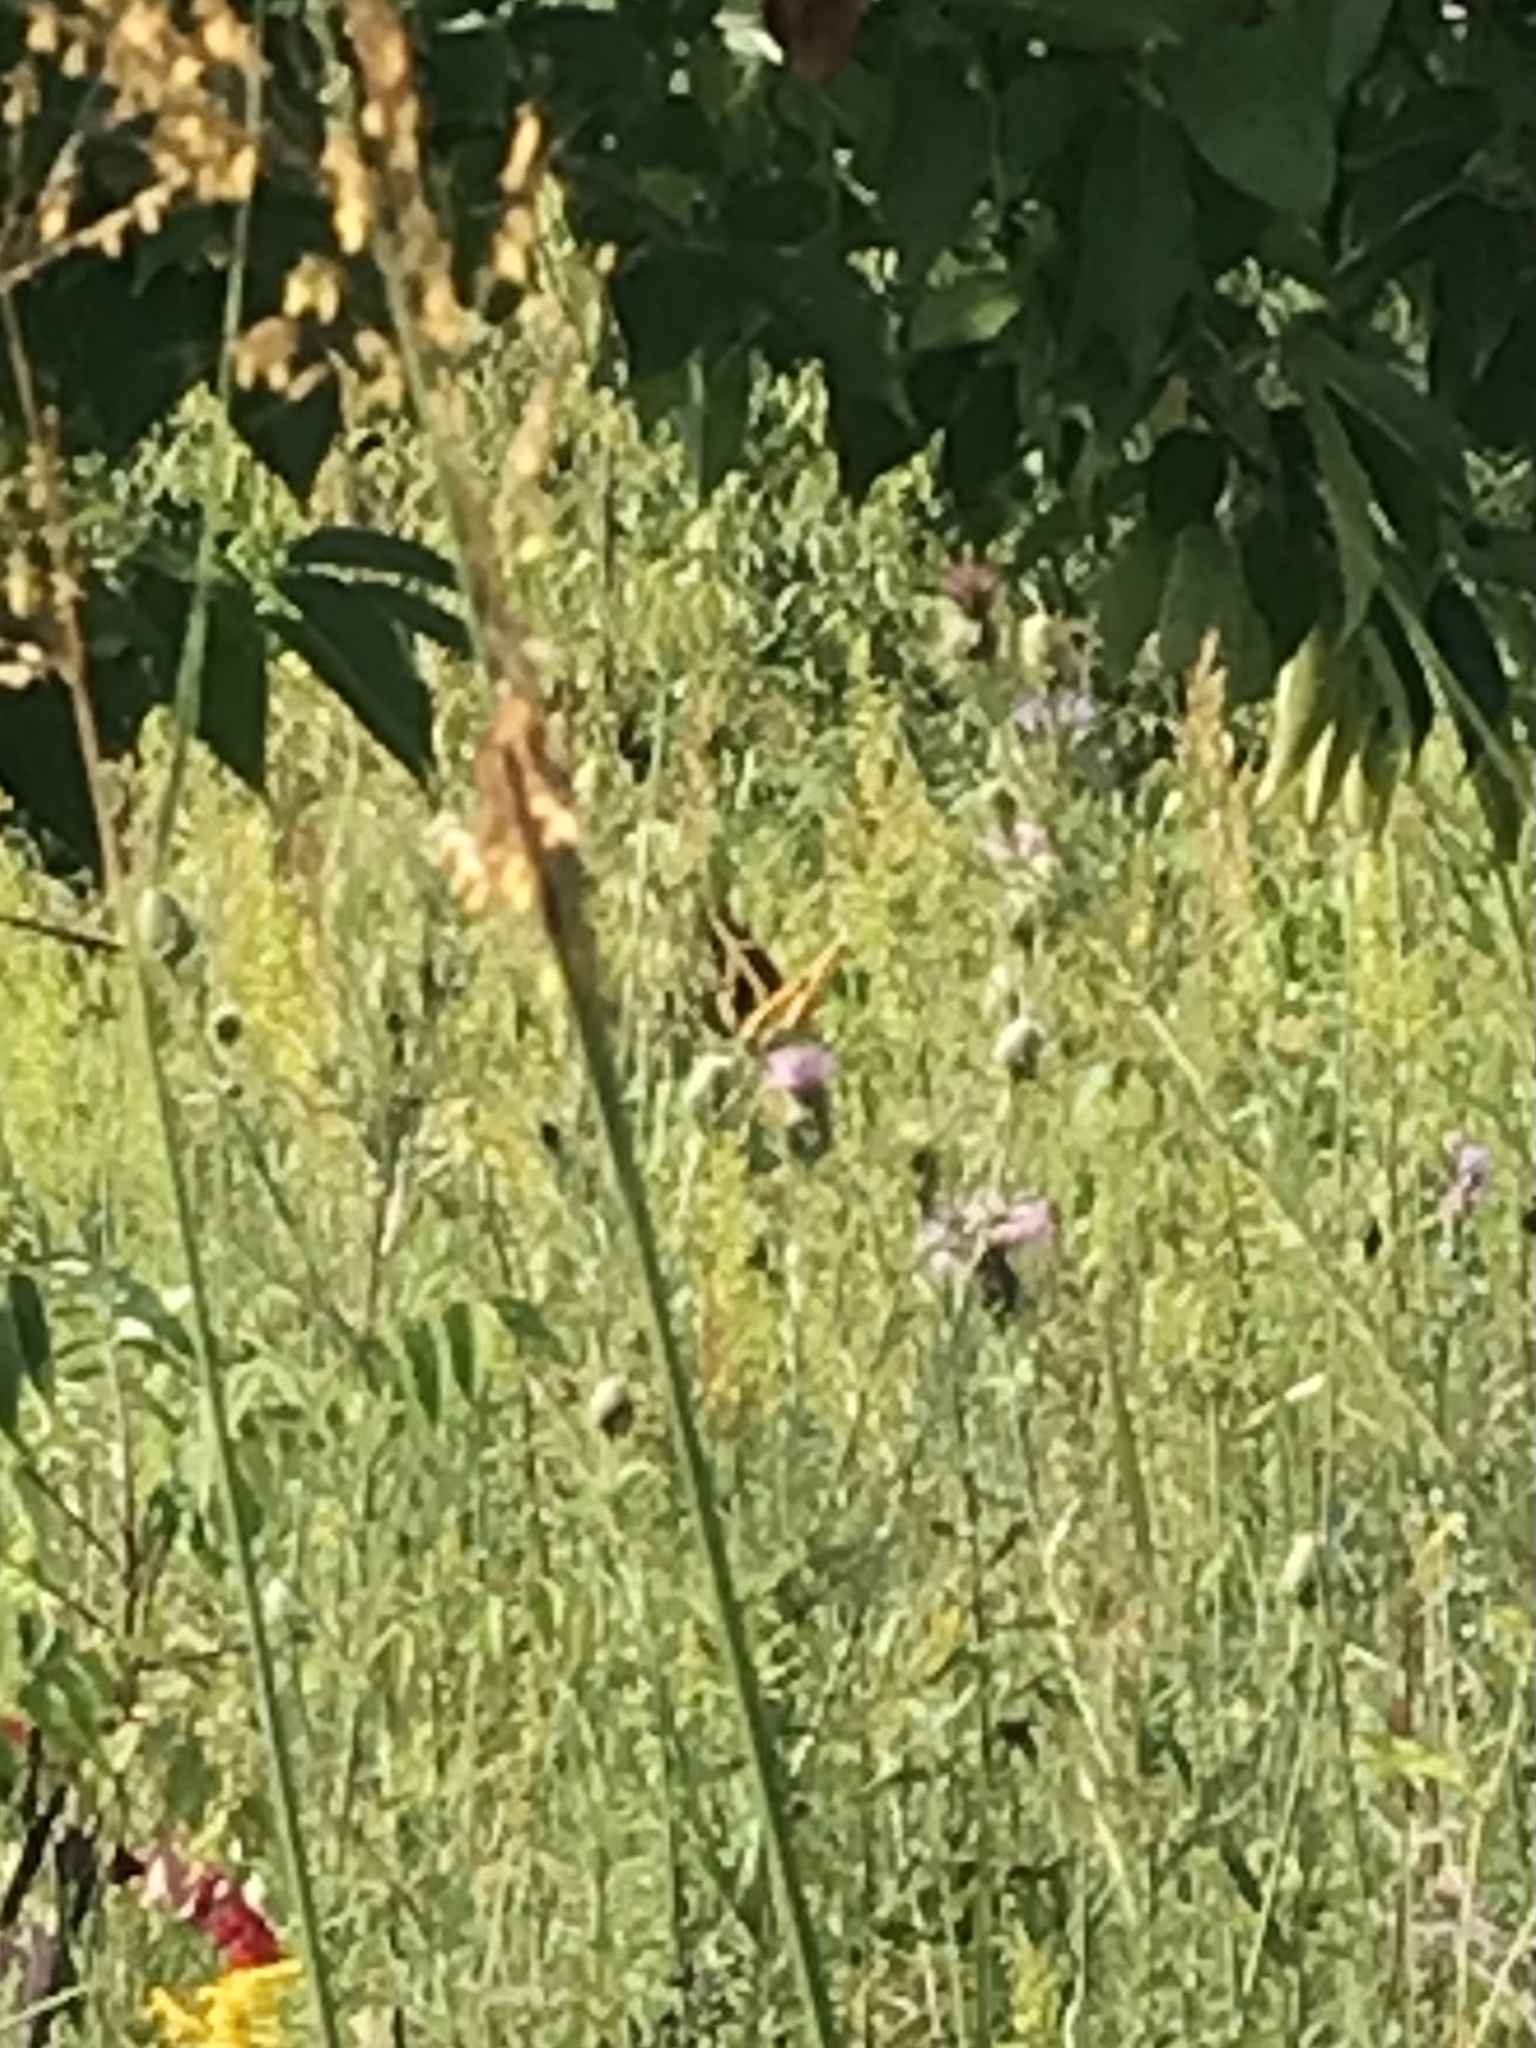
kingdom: Animalia
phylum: Arthropoda
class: Insecta
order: Lepidoptera
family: Papilionidae
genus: Papilio
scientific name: Papilio cresphontes
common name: Giant swallowtail
